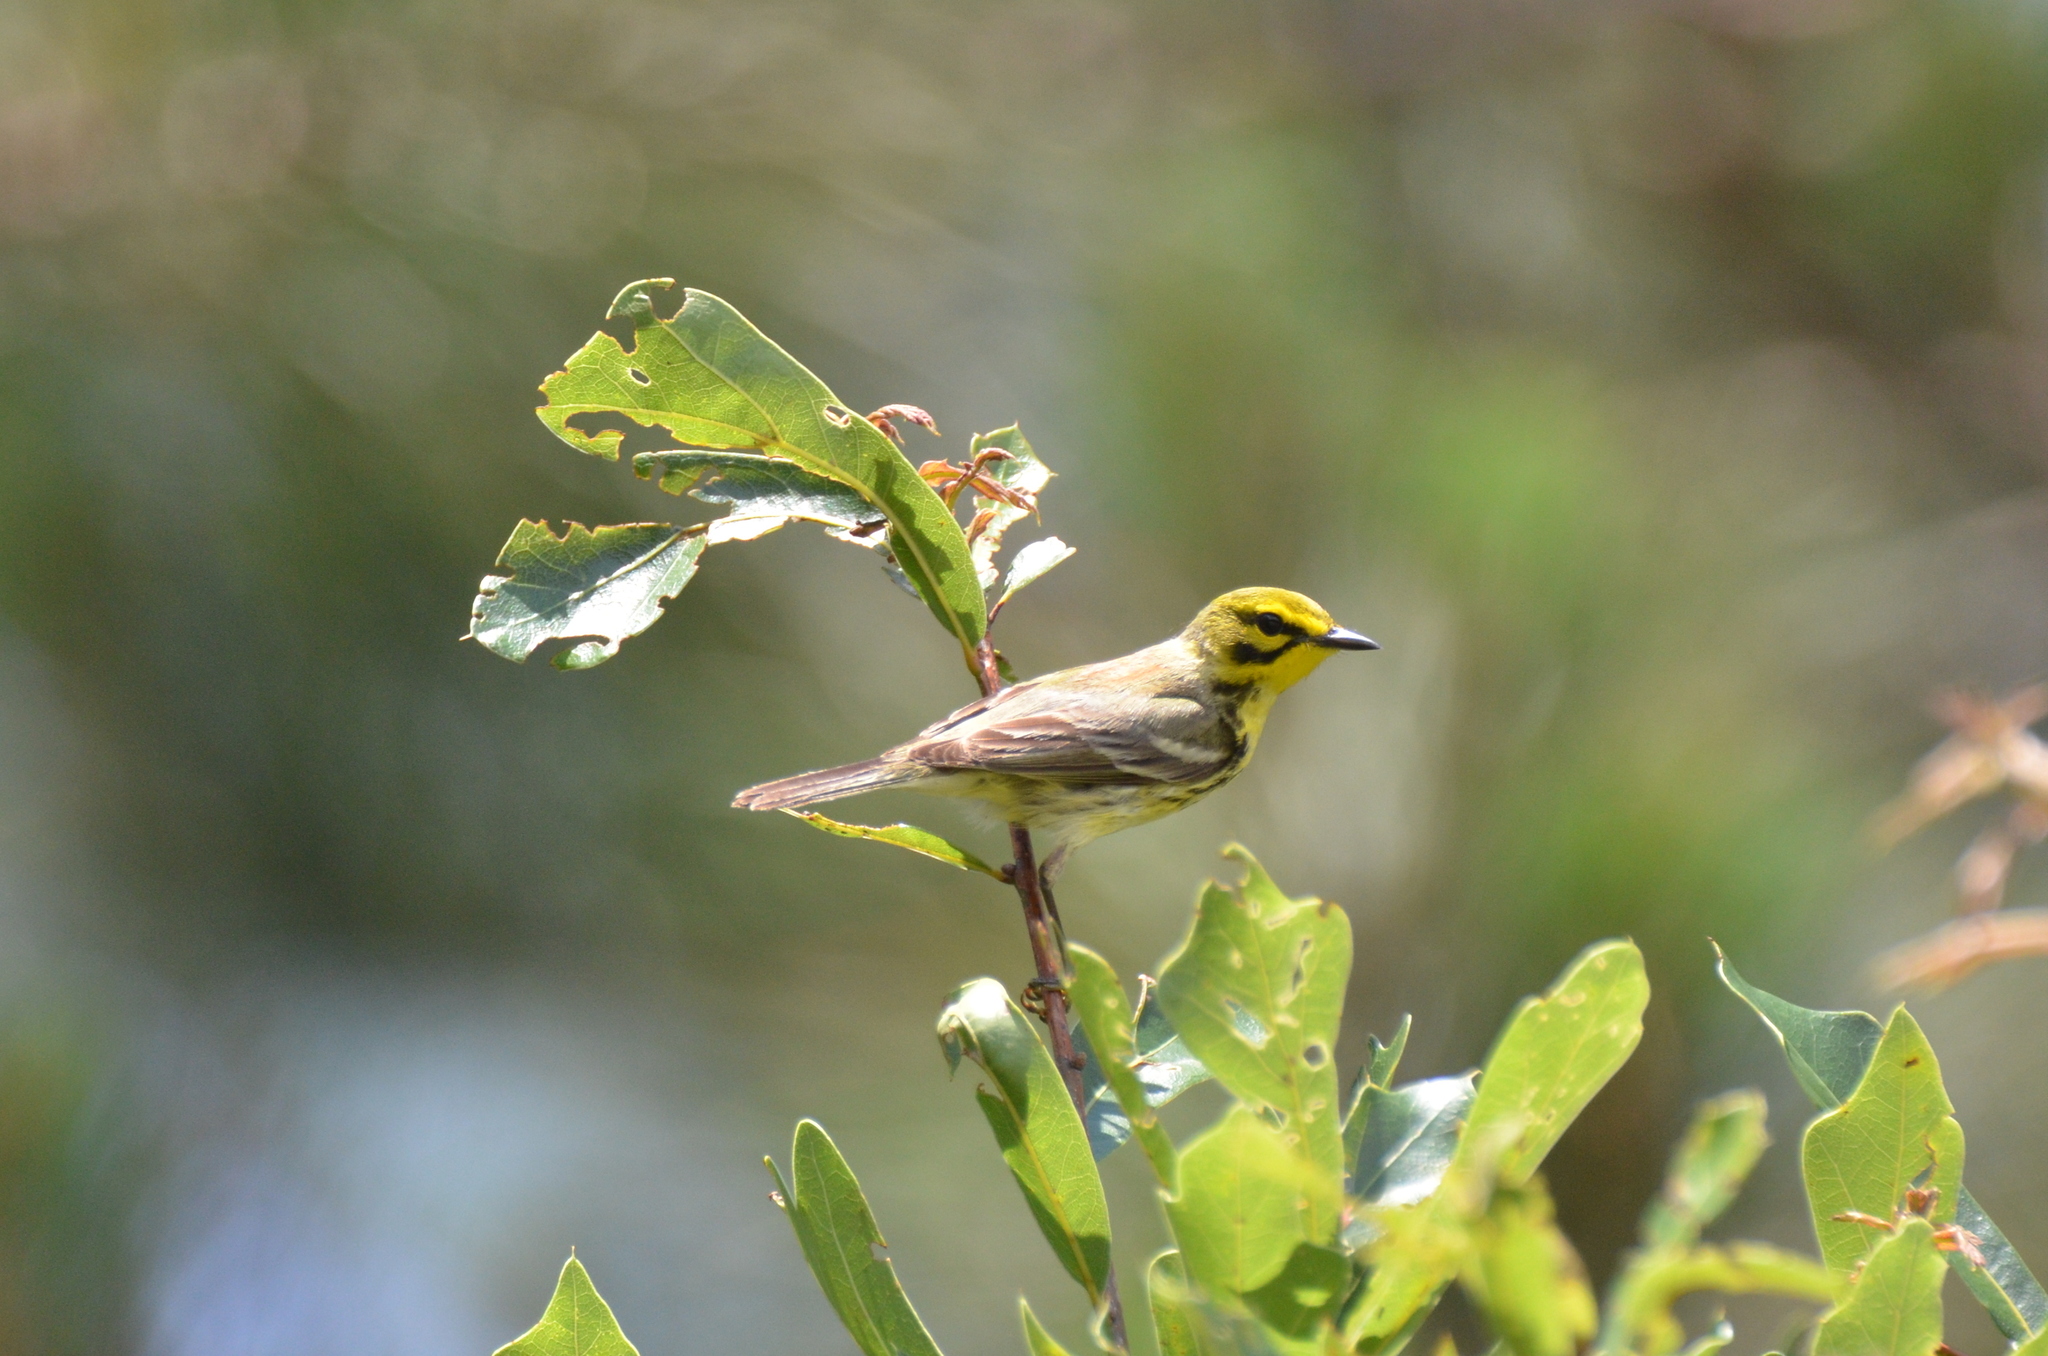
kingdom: Animalia
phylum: Chordata
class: Aves
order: Passeriformes
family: Parulidae
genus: Setophaga
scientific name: Setophaga discolor
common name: Prairie warbler
